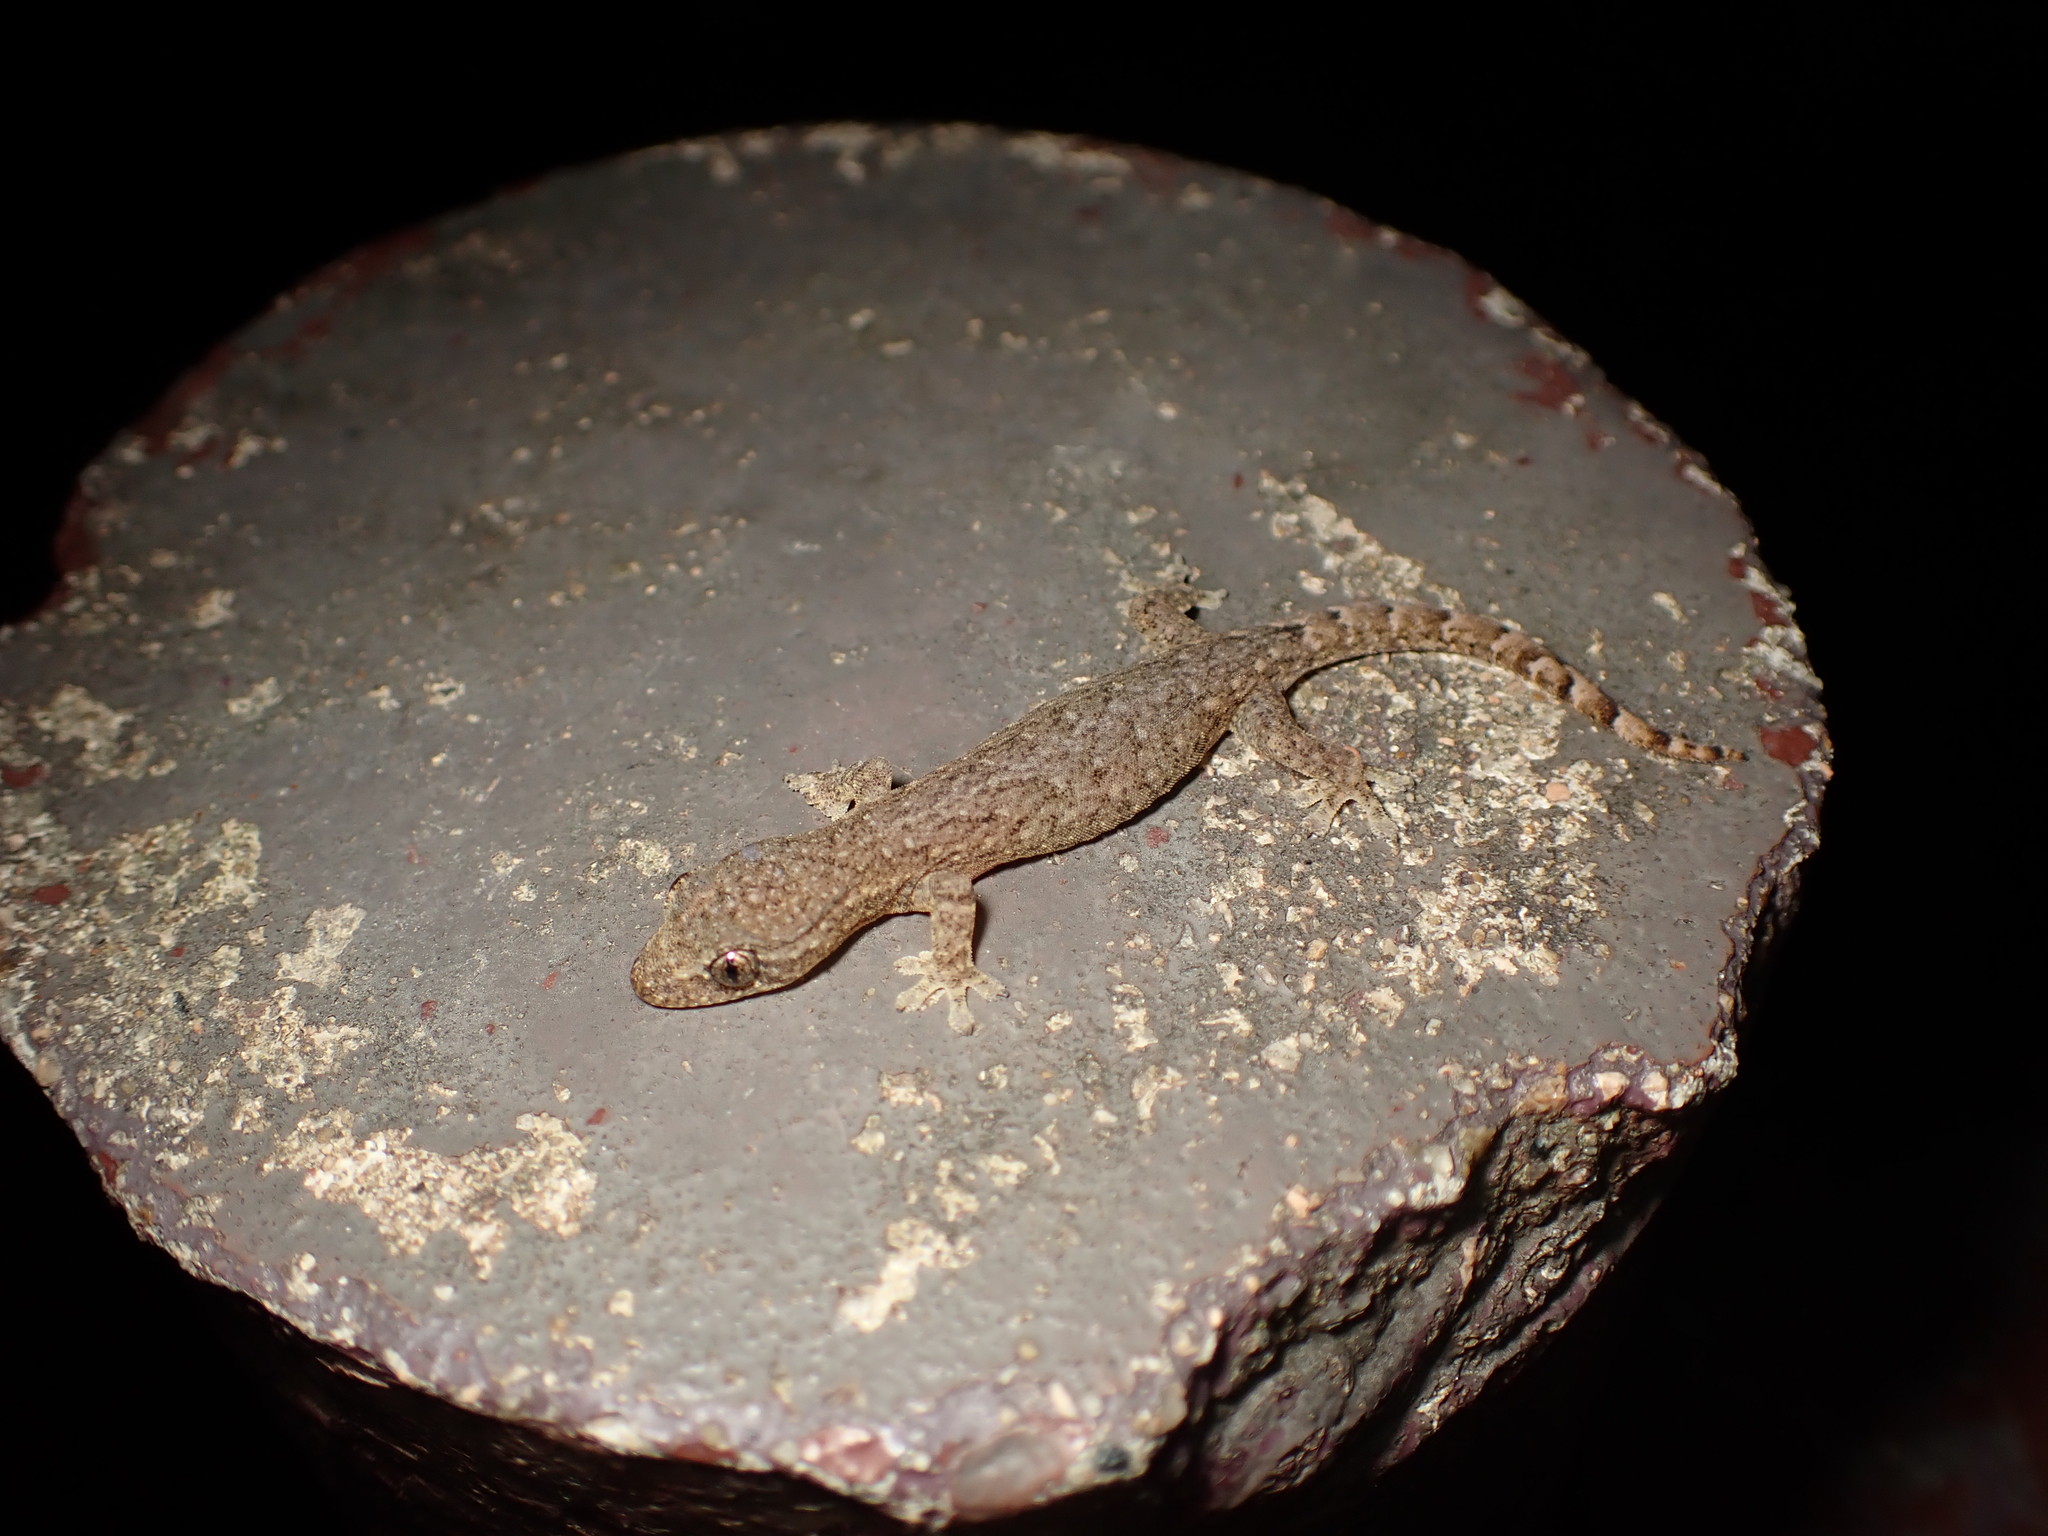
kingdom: Animalia
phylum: Chordata
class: Squamata
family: Gekkonidae
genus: Hemiphyllodactylus
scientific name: Hemiphyllodactylus hongkongensis
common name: Hong kong slender gecko
